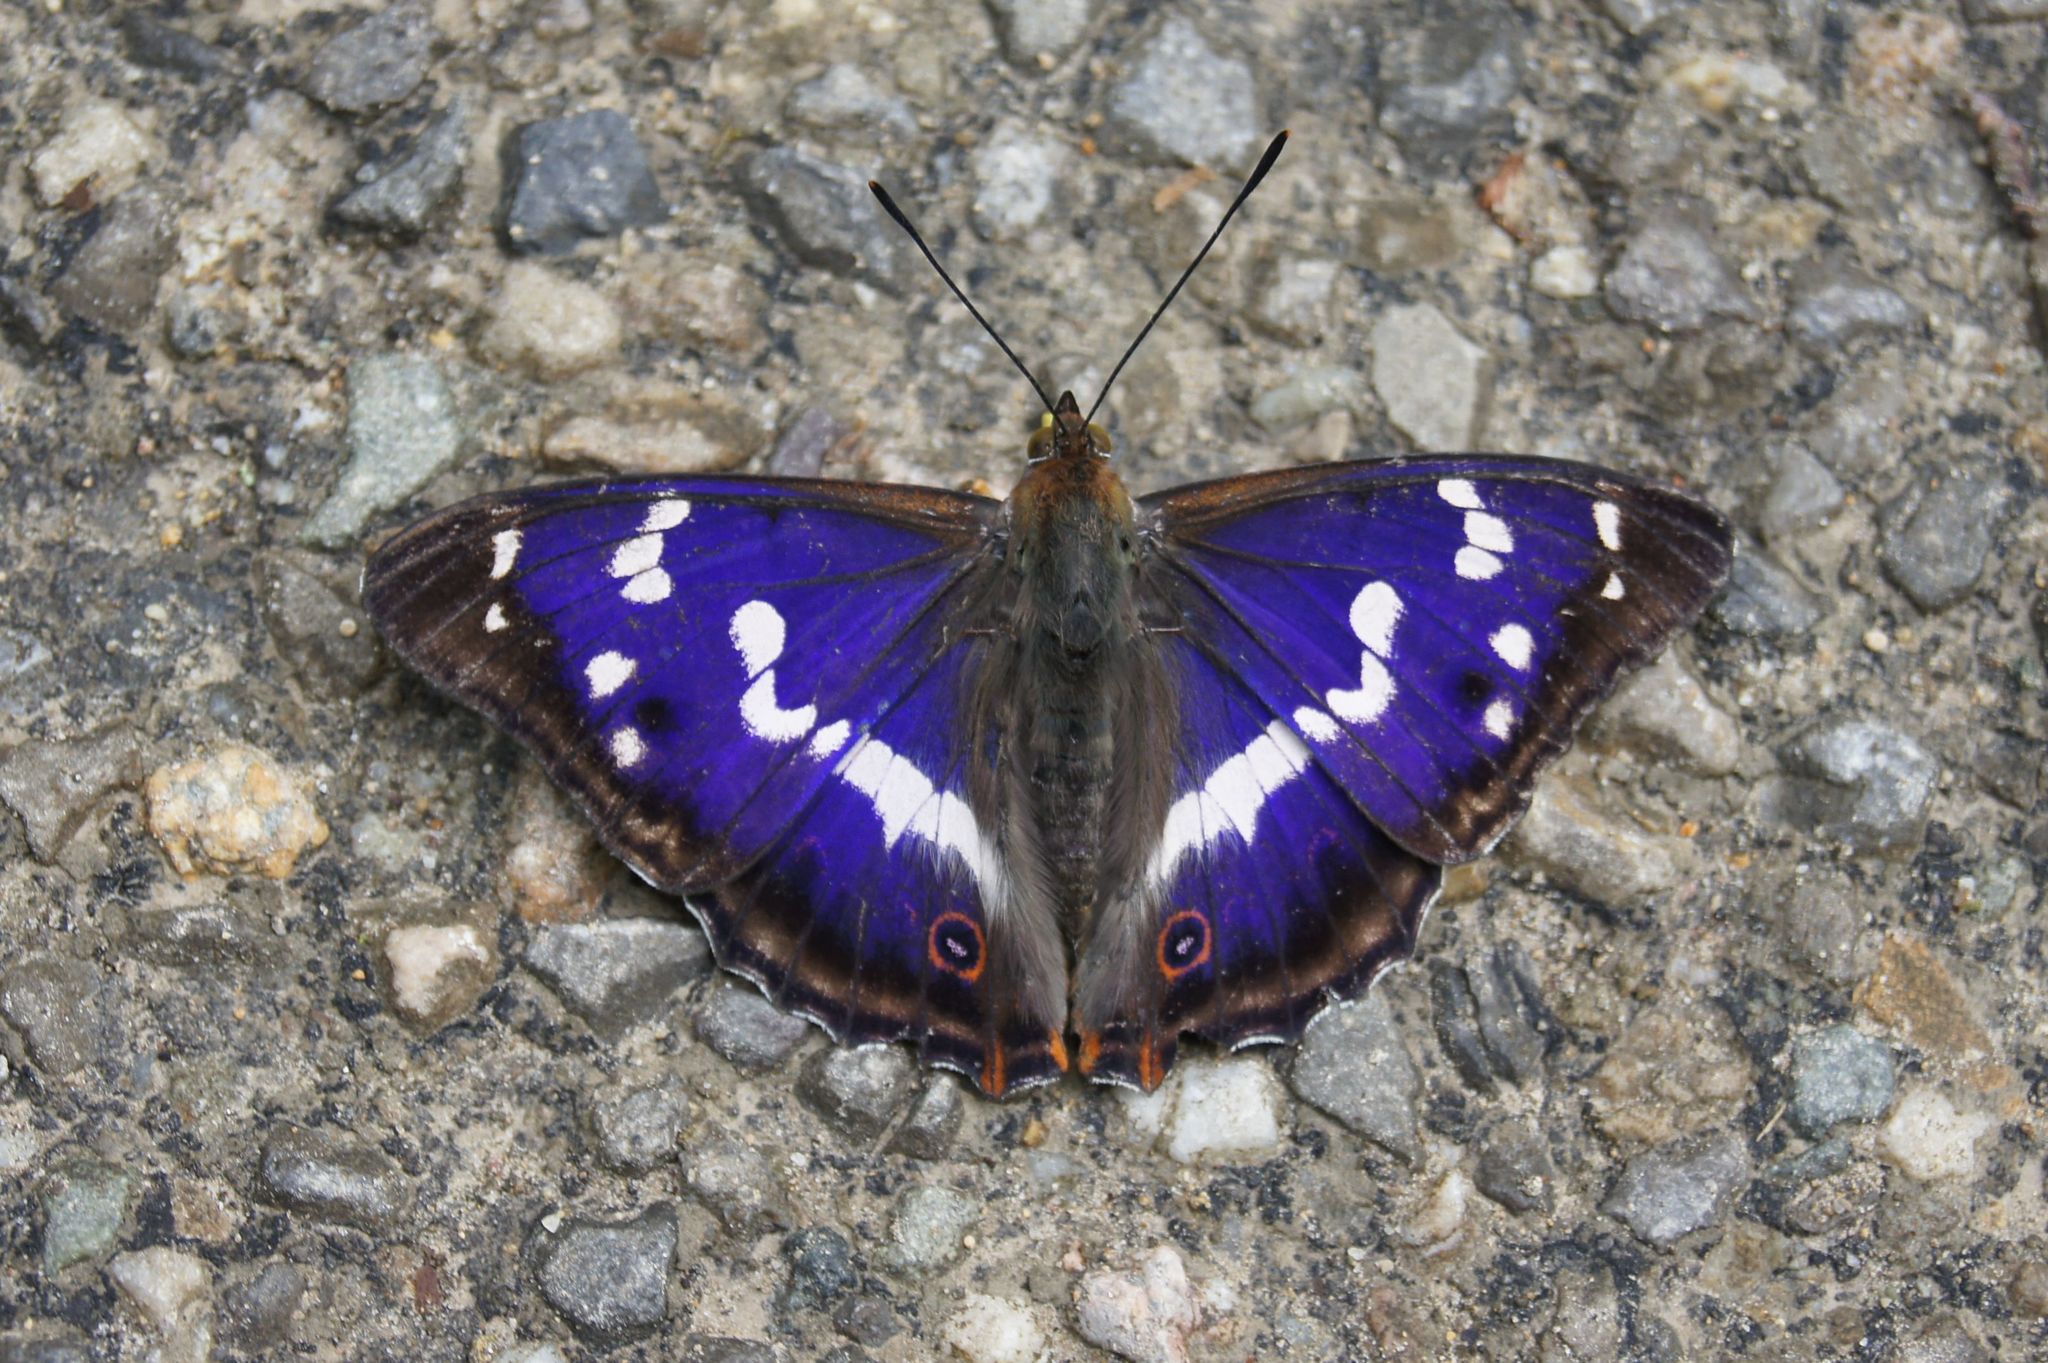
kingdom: Animalia
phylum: Arthropoda
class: Insecta
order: Lepidoptera
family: Nymphalidae
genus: Apatura
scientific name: Apatura iris
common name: Purple emperor
